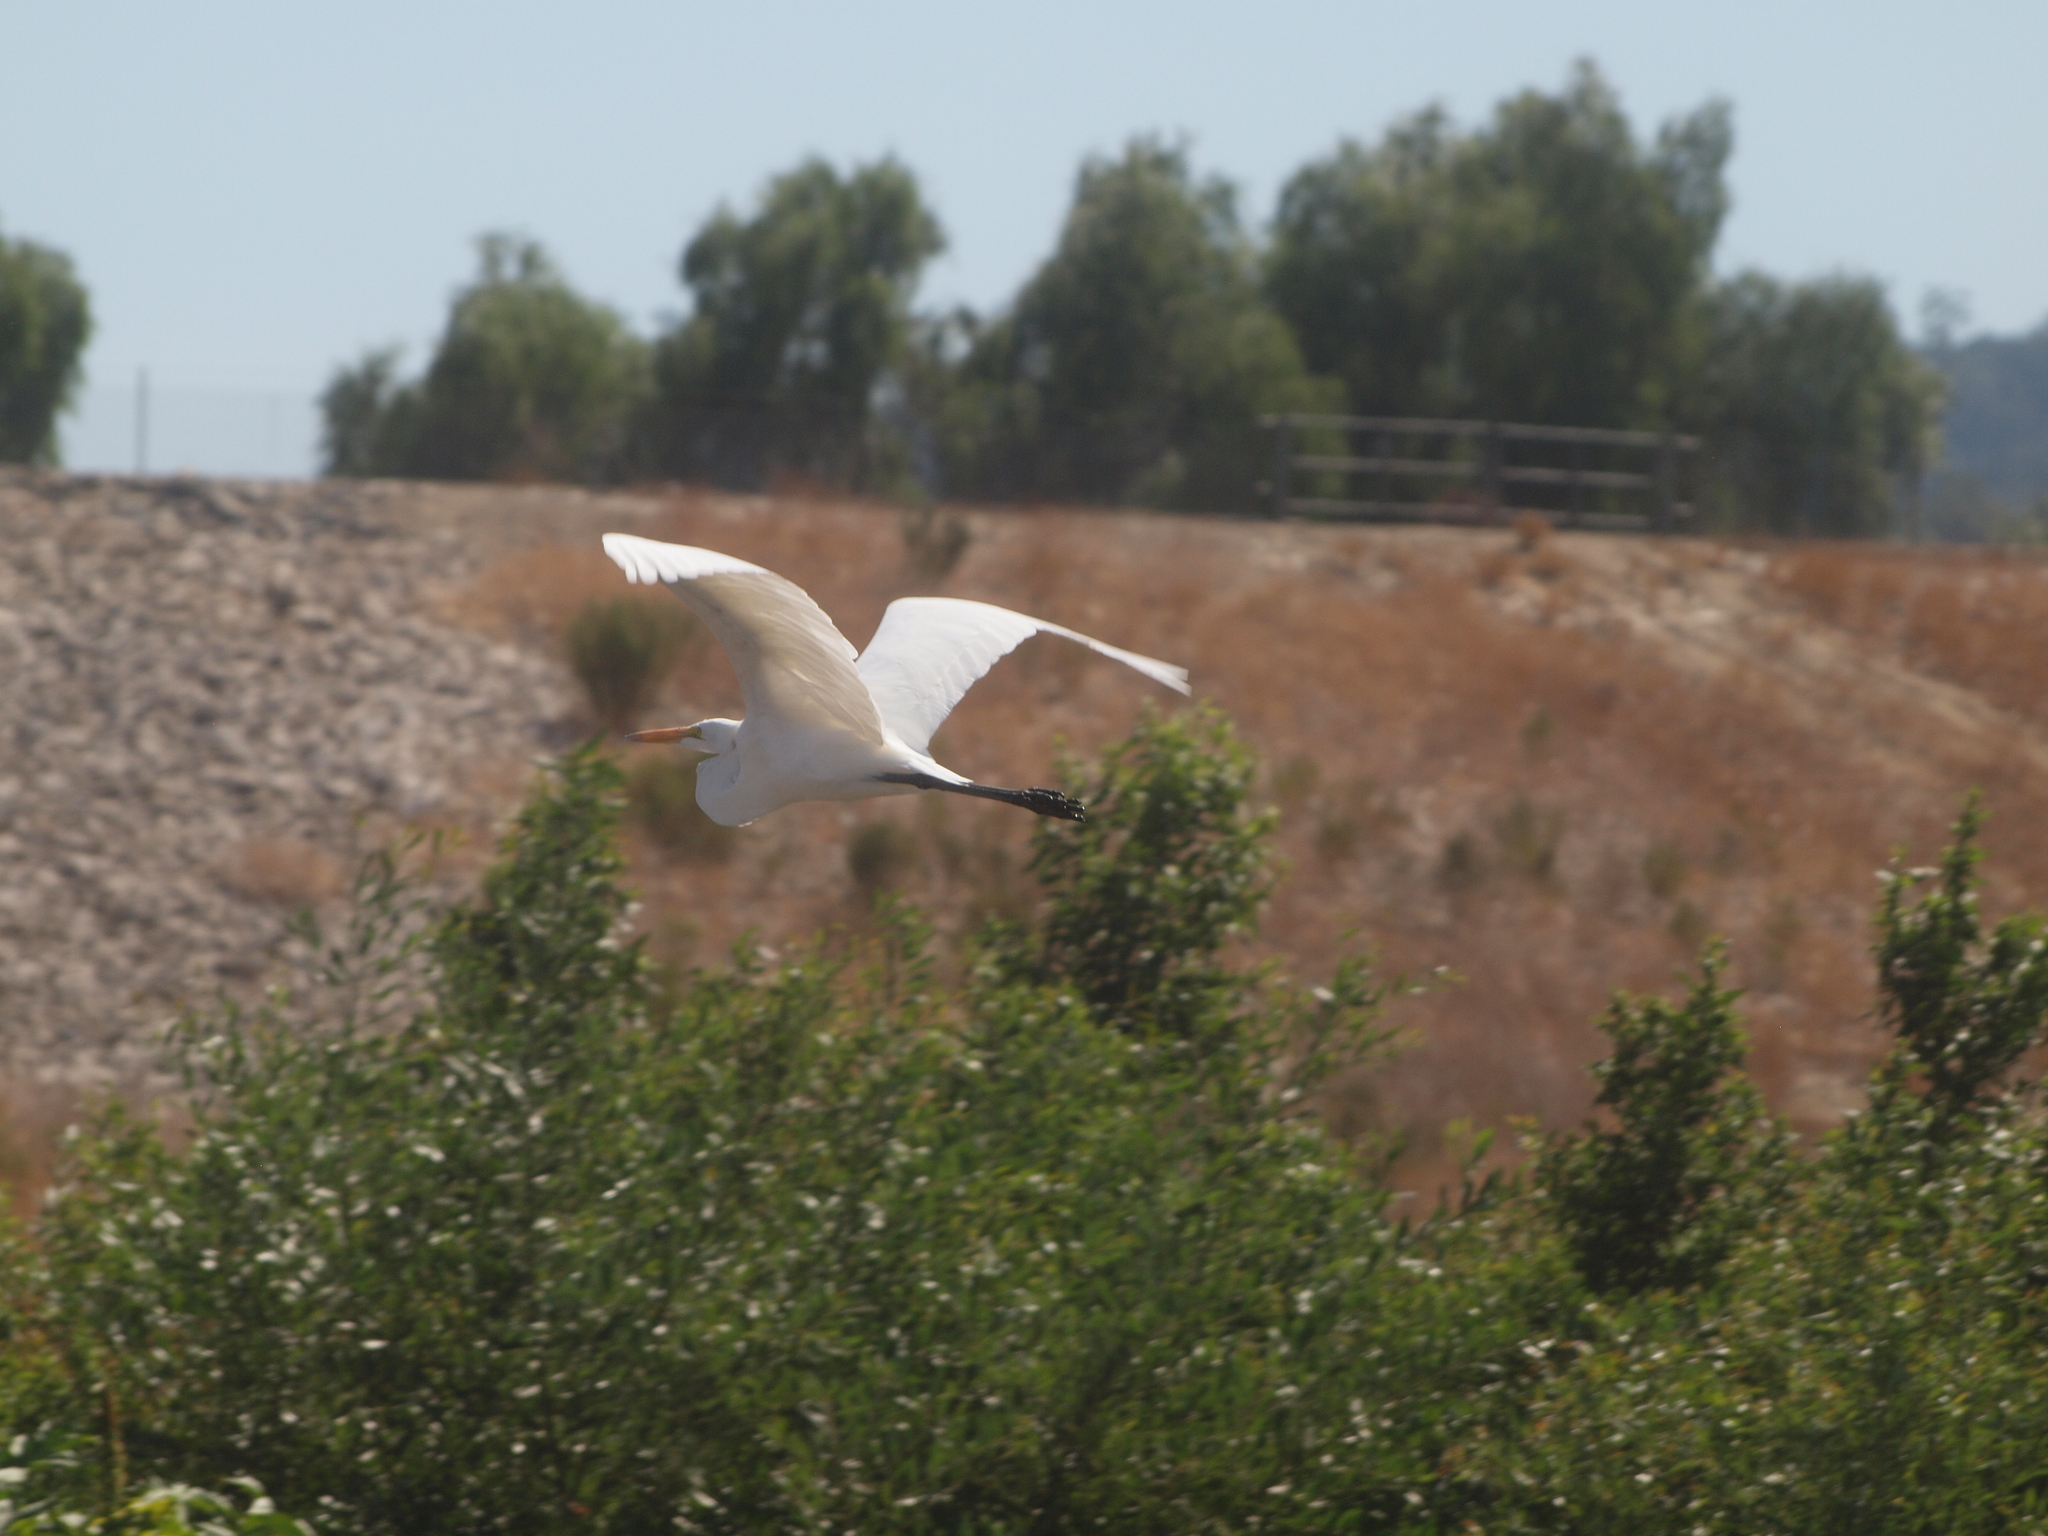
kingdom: Animalia
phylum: Chordata
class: Aves
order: Pelecaniformes
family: Ardeidae
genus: Ardea
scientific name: Ardea alba
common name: Great egret
